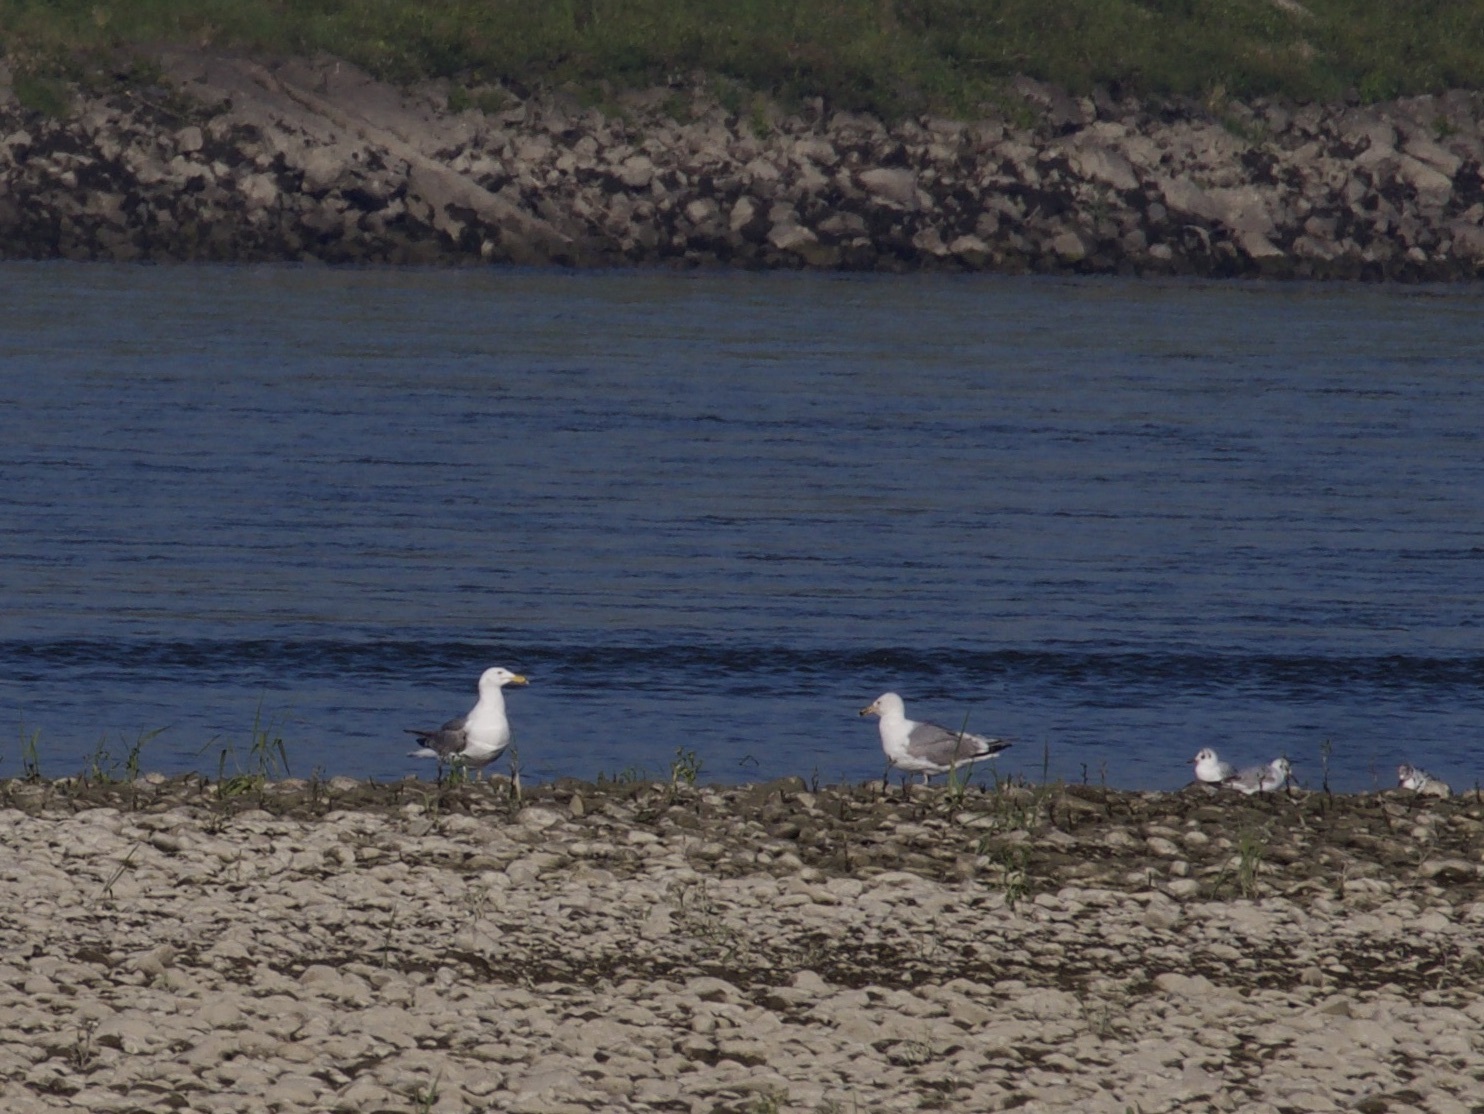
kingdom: Animalia
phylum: Chordata
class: Aves
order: Charadriiformes
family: Laridae
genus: Larus
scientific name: Larus cachinnans
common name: Caspian gull
